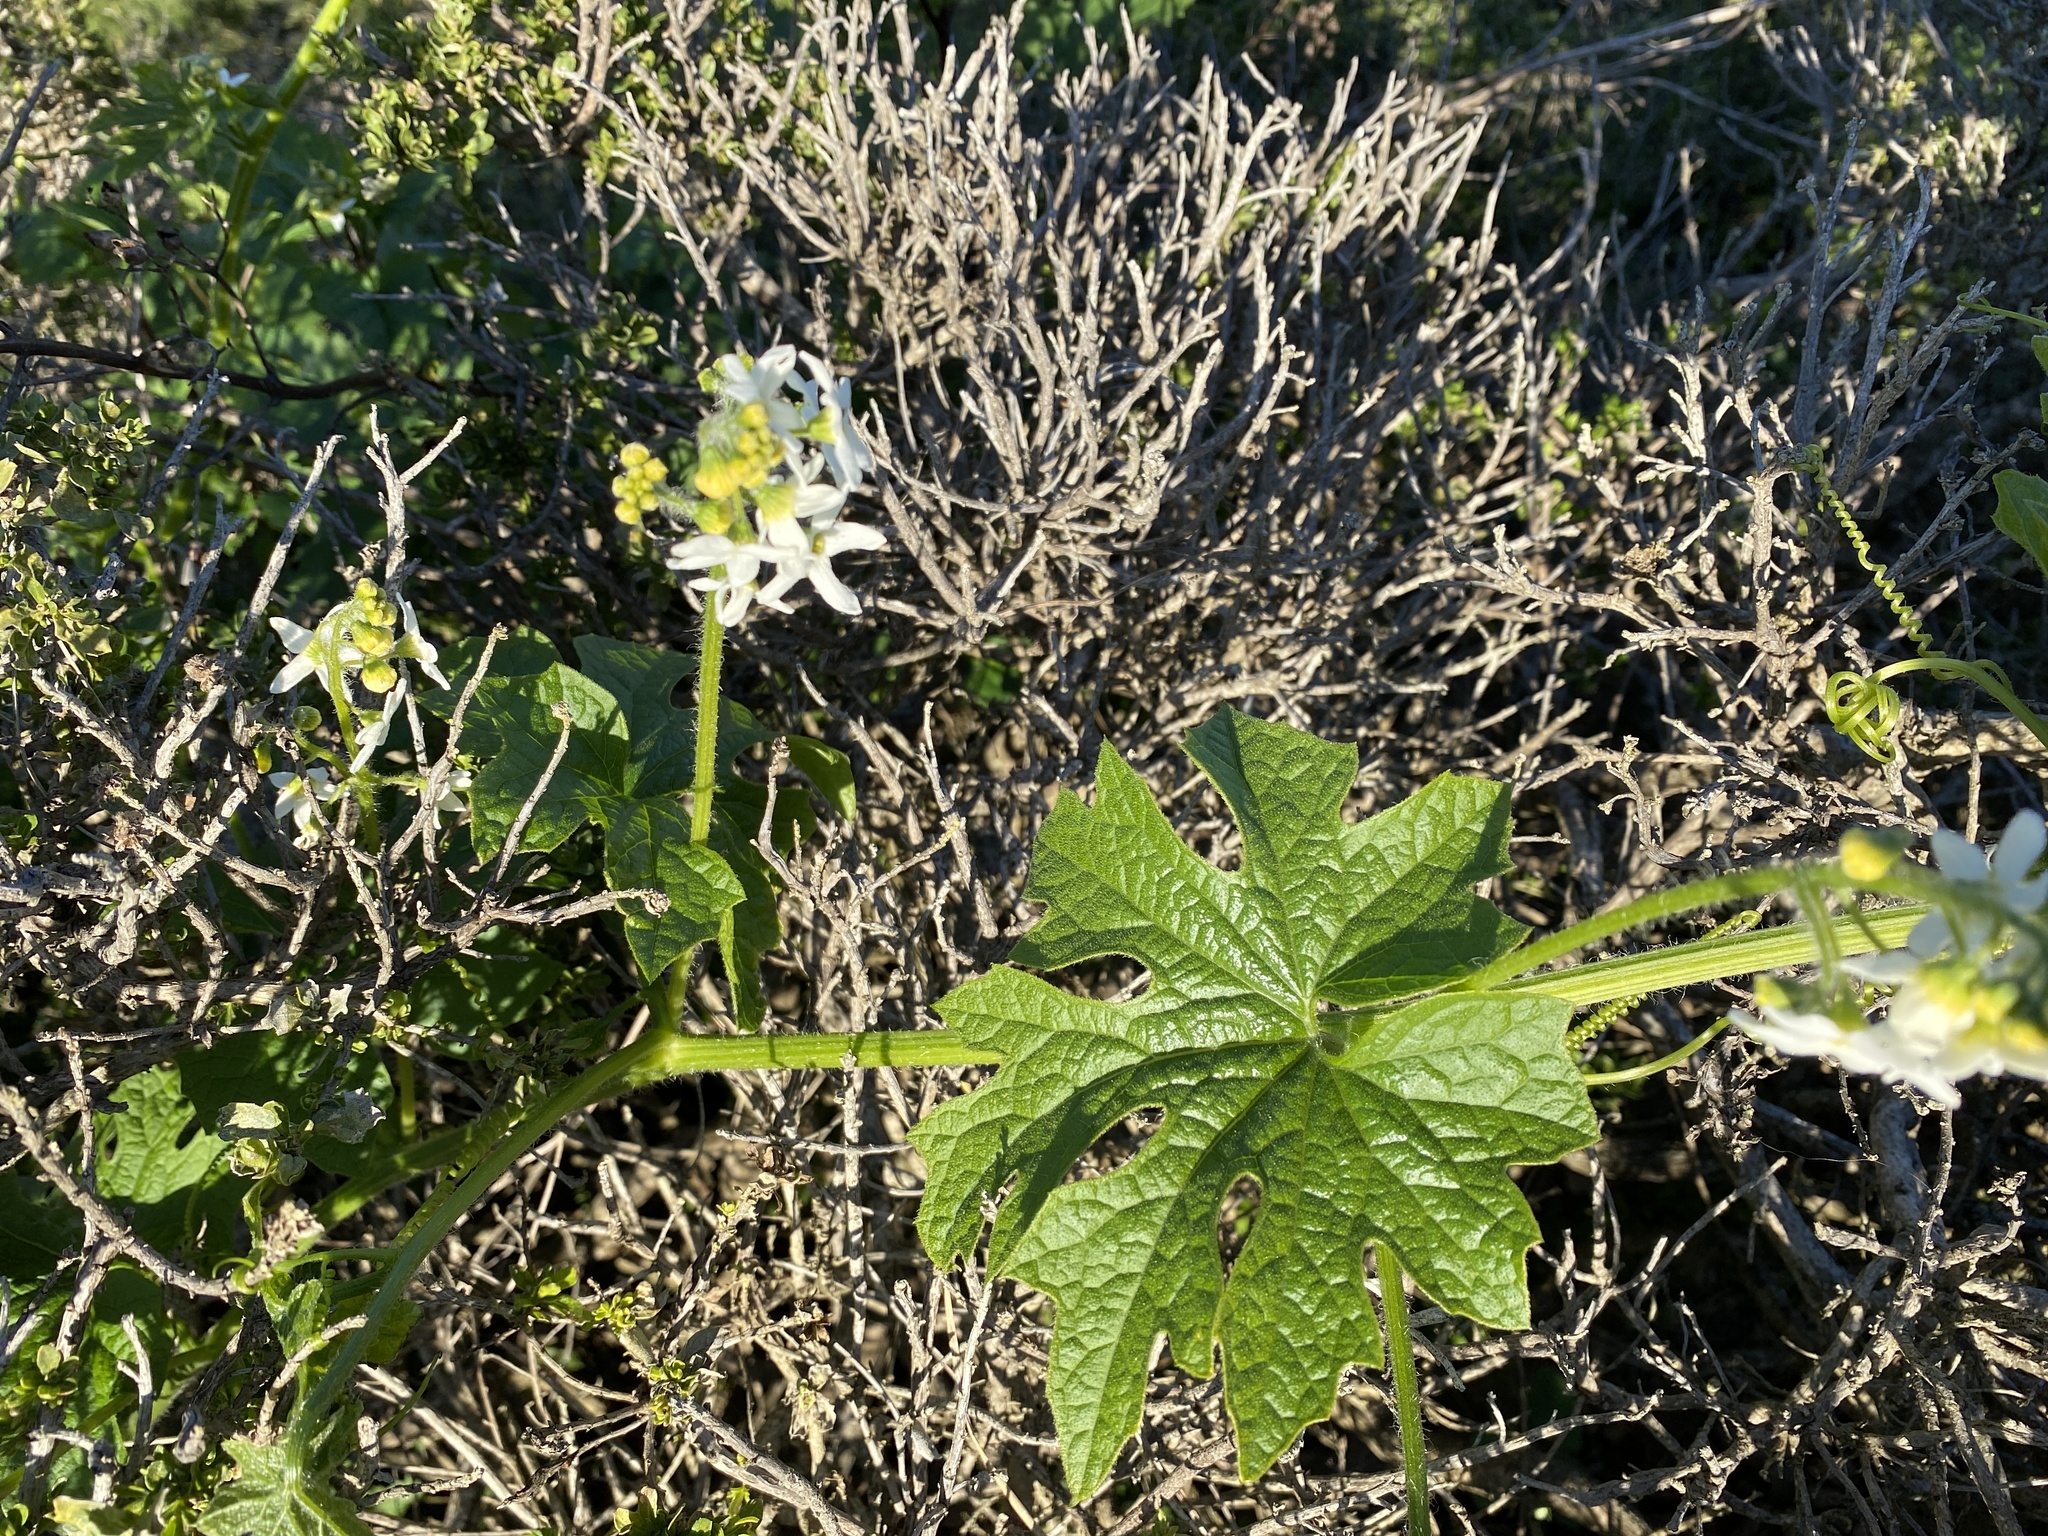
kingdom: Plantae
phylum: Tracheophyta
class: Magnoliopsida
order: Cucurbitales
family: Cucurbitaceae
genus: Marah
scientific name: Marah oregana
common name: Coastal manroot
